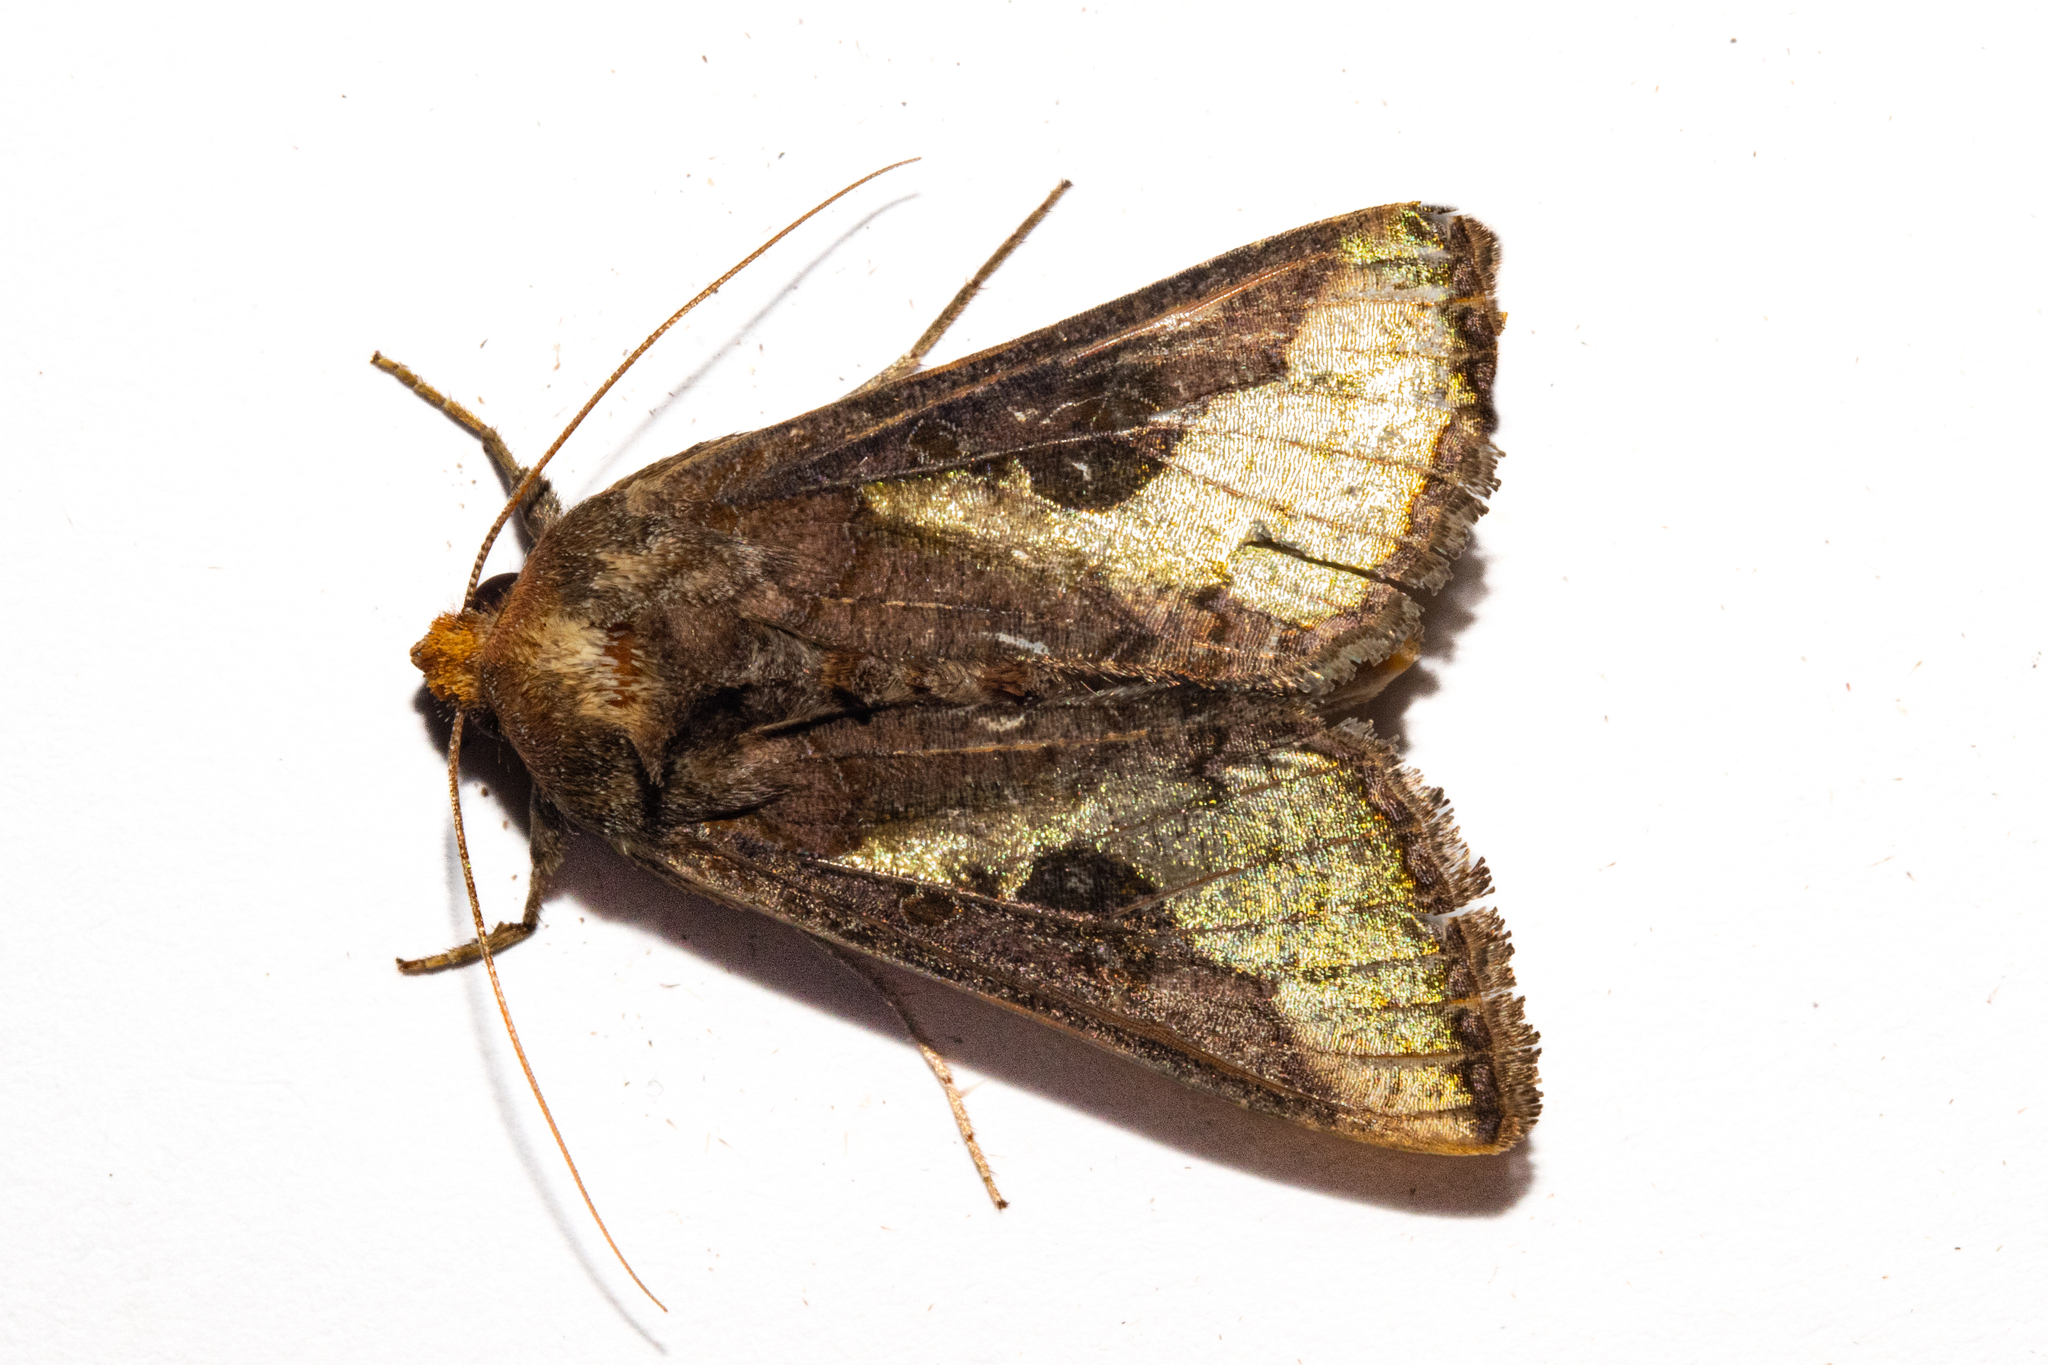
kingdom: Animalia
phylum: Arthropoda
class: Insecta
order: Lepidoptera
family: Noctuidae
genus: Thysanoplusia
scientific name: Thysanoplusia orichalcea
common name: Slender burnished brass, golden plusia
